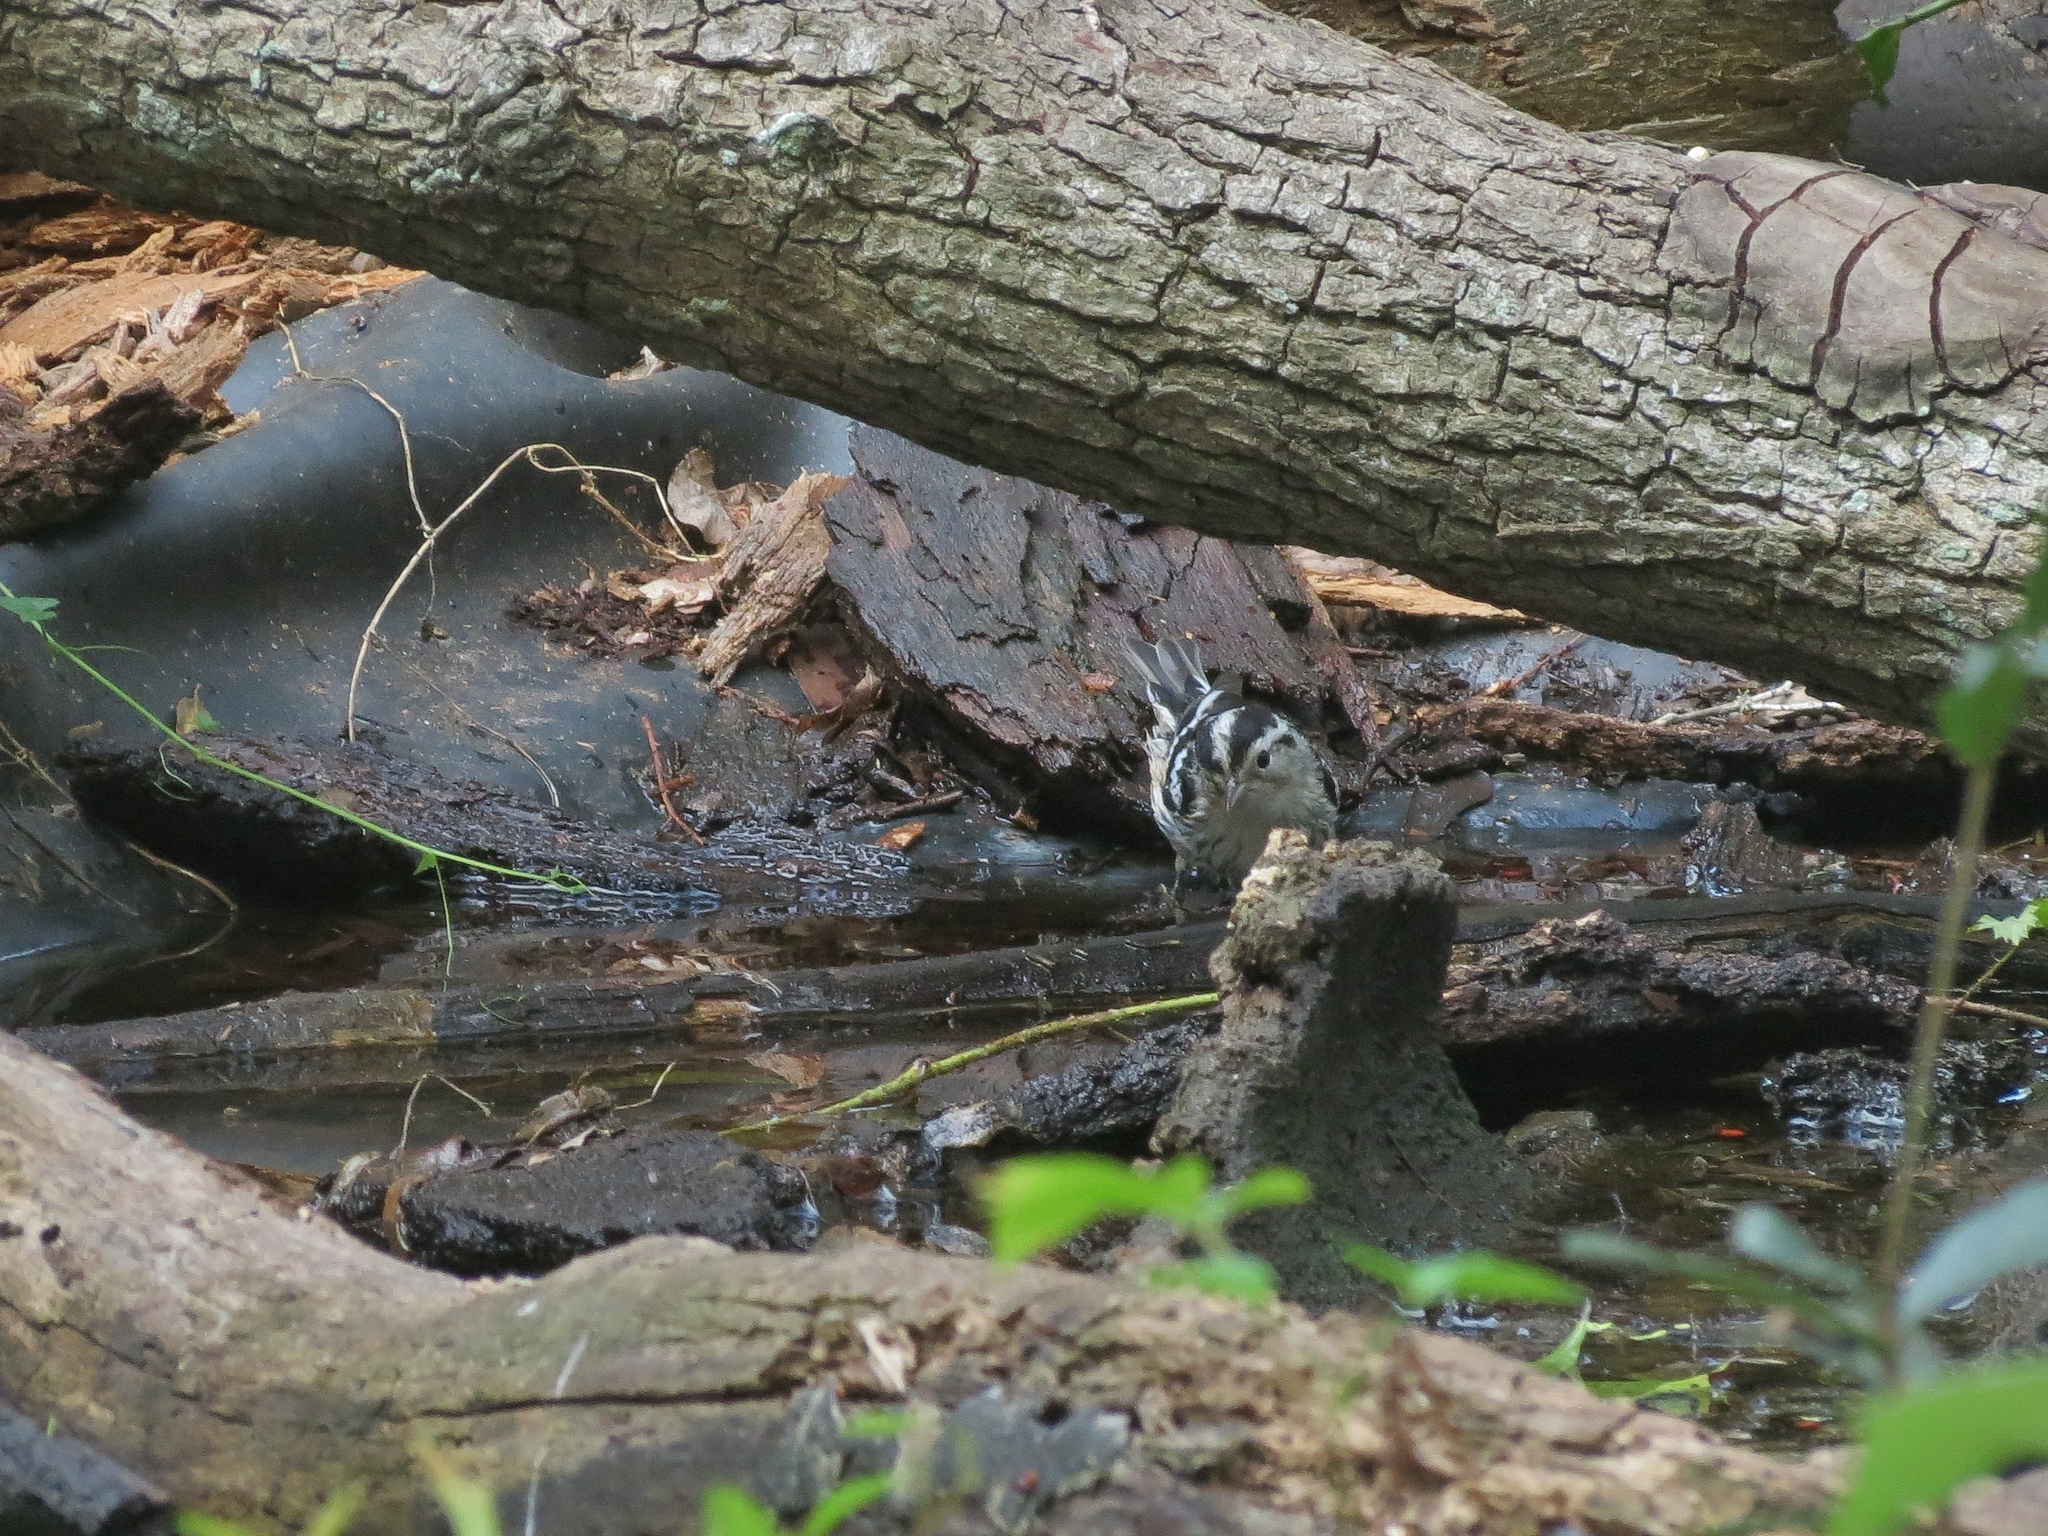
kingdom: Animalia
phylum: Chordata
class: Aves
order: Passeriformes
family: Parulidae
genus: Mniotilta
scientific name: Mniotilta varia
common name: Black-and-white warbler
